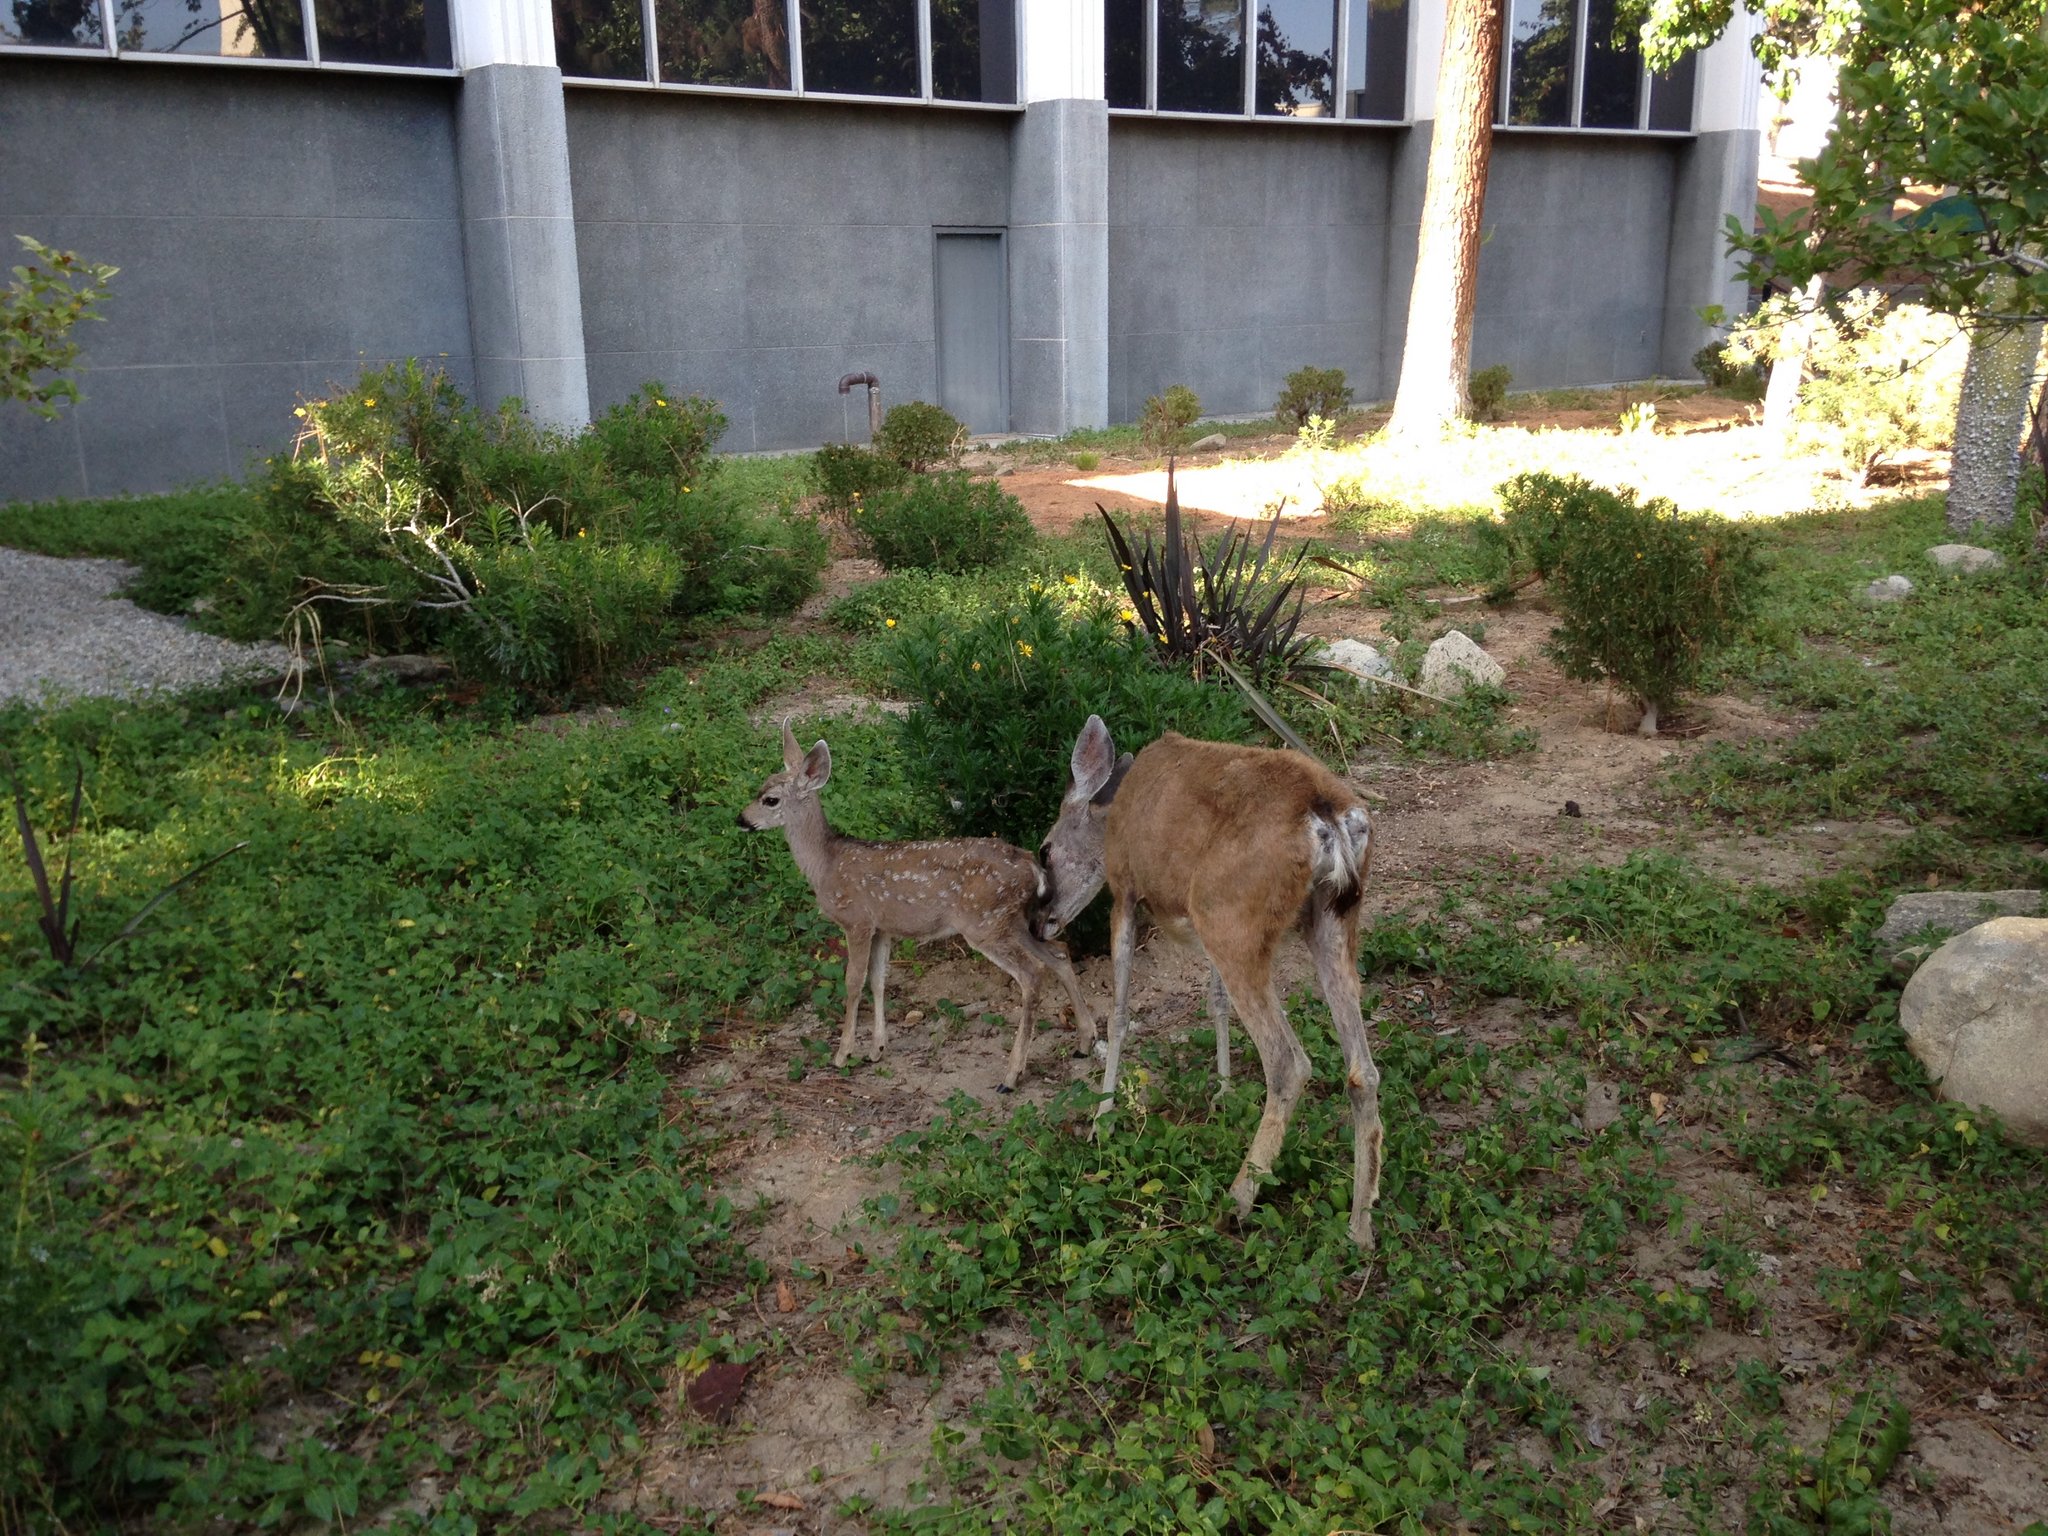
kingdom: Animalia
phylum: Chordata
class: Mammalia
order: Artiodactyla
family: Cervidae
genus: Odocoileus
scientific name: Odocoileus hemionus
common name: Mule deer
